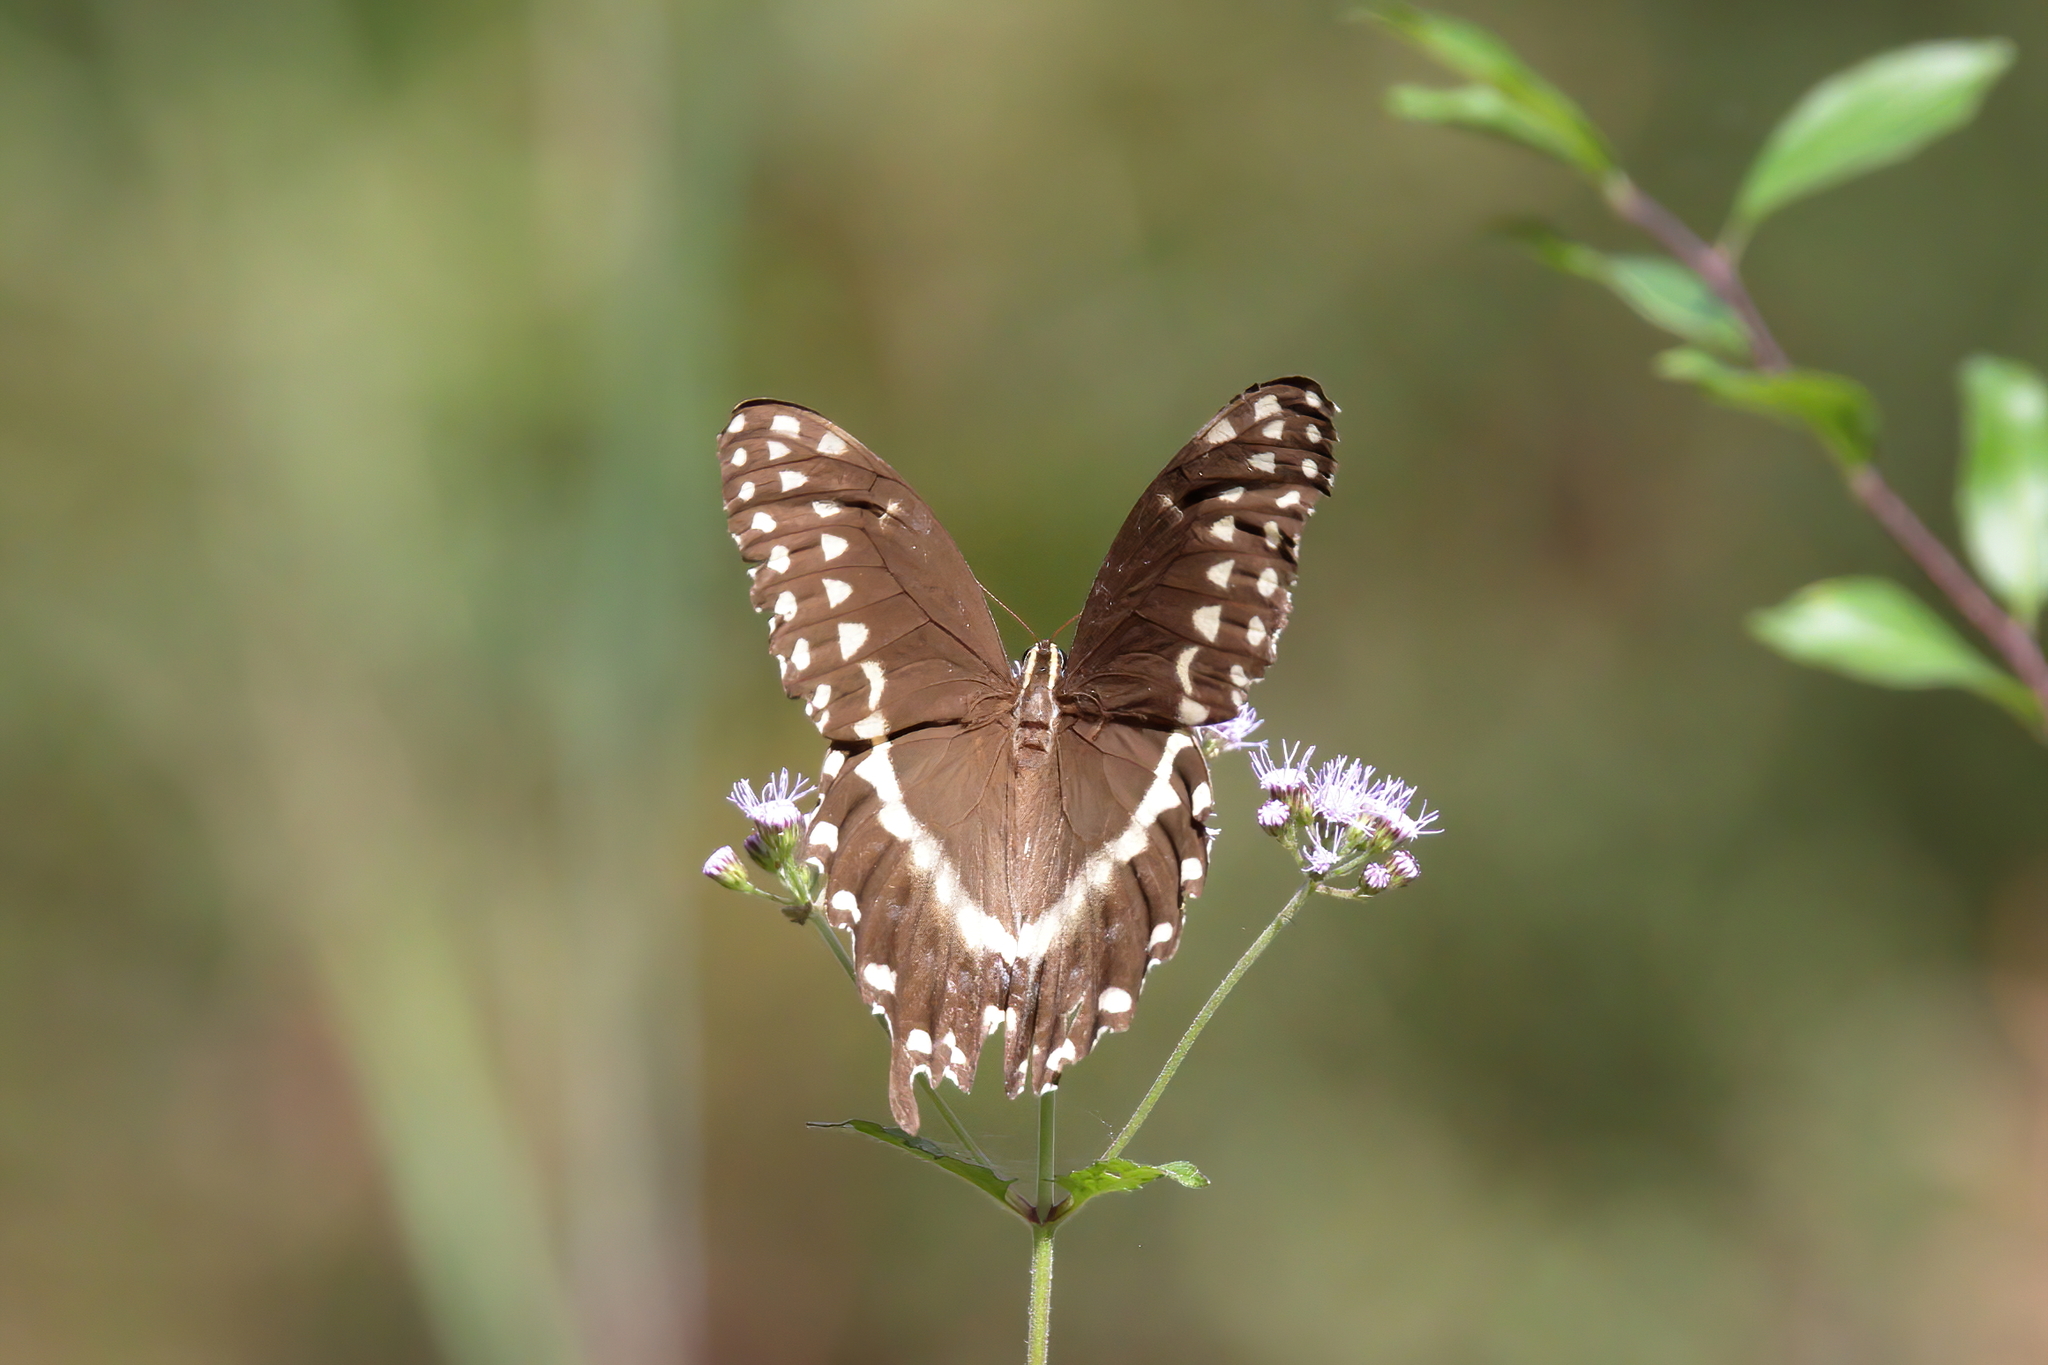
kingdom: Animalia
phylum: Arthropoda
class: Insecta
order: Lepidoptera
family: Papilionidae
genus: Papilio
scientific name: Papilio palamedes
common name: Palamedes swallowtail
